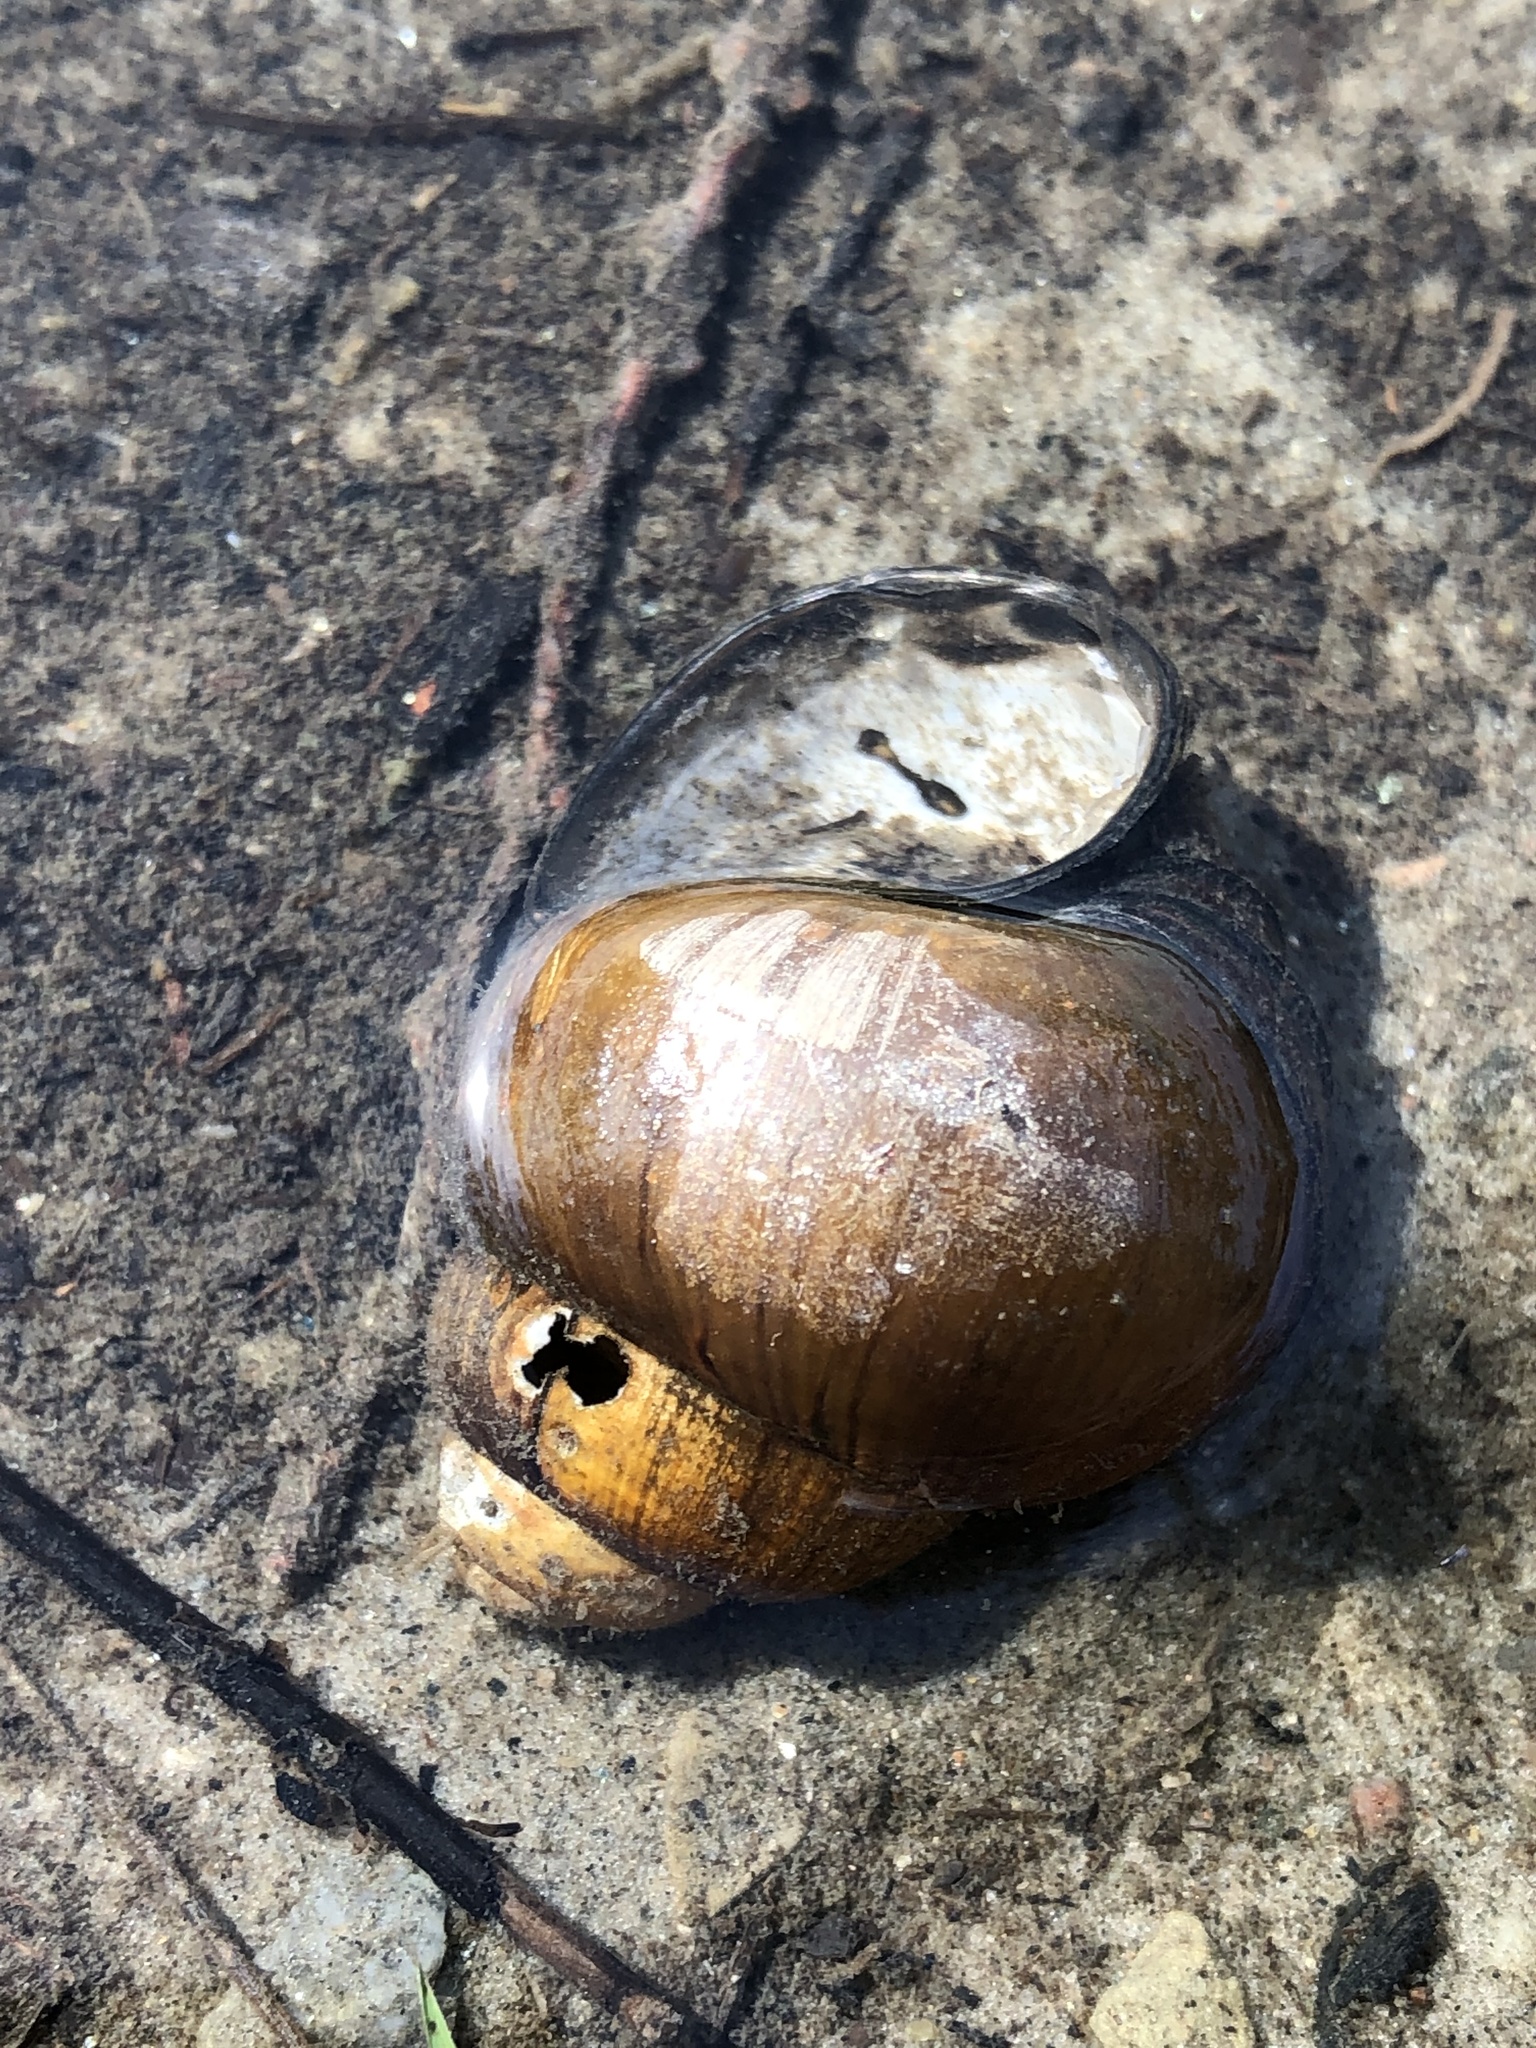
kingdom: Animalia
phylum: Mollusca
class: Gastropoda
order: Architaenioglossa
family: Viviparidae
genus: Cipangopaludina
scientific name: Cipangopaludina chinensis
